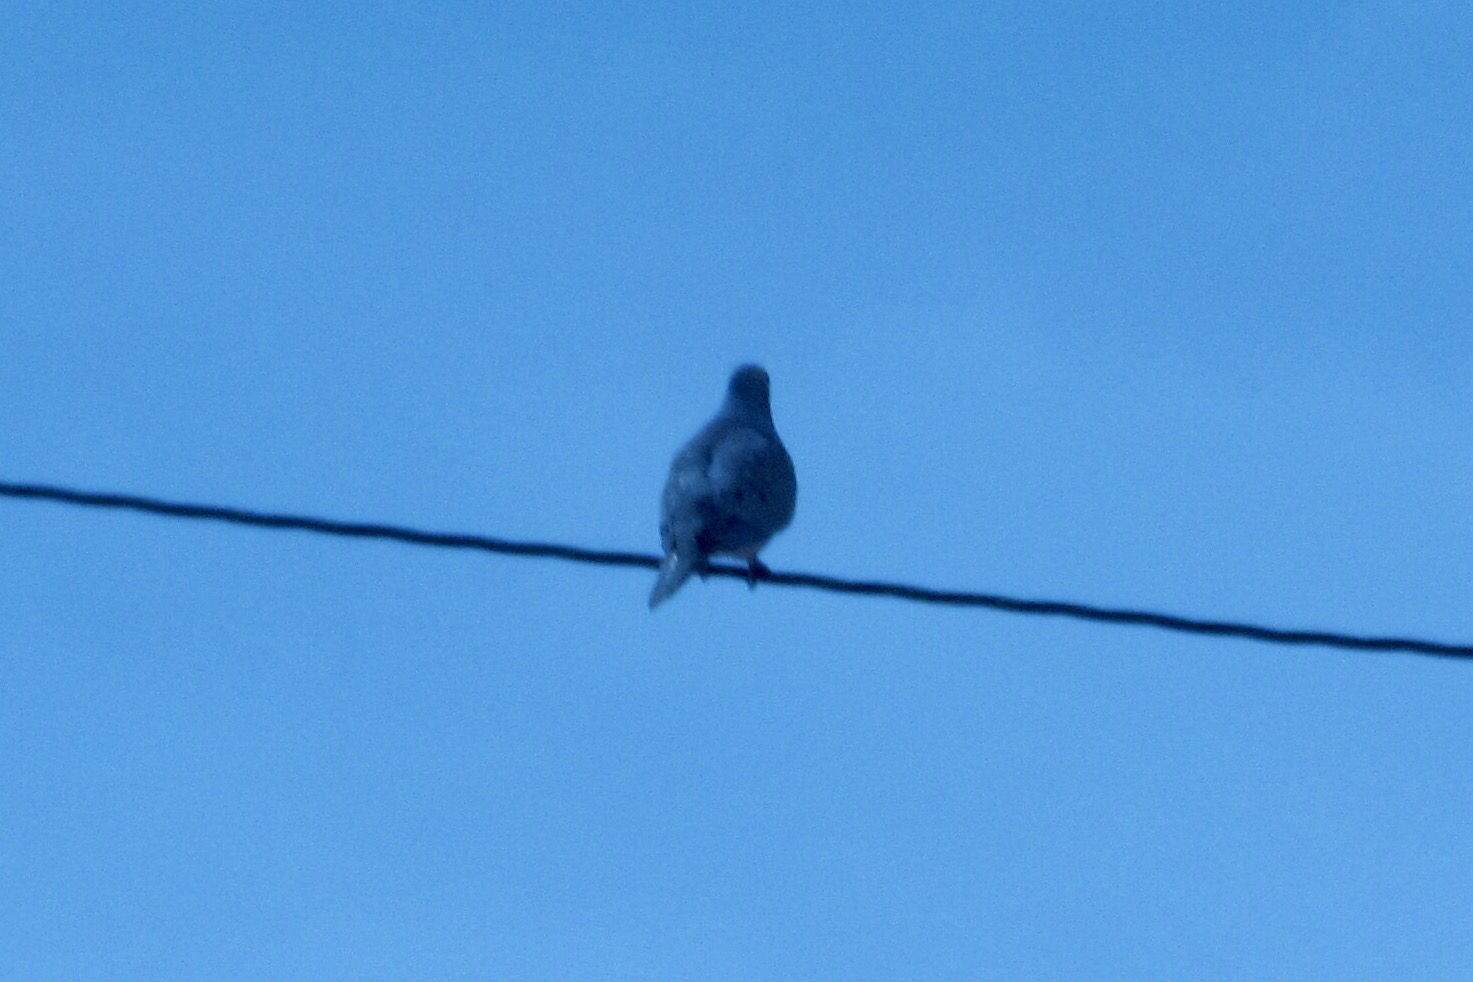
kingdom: Animalia
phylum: Chordata
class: Aves
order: Columbiformes
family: Columbidae
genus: Zenaida
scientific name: Zenaida macroura
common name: Mourning dove
